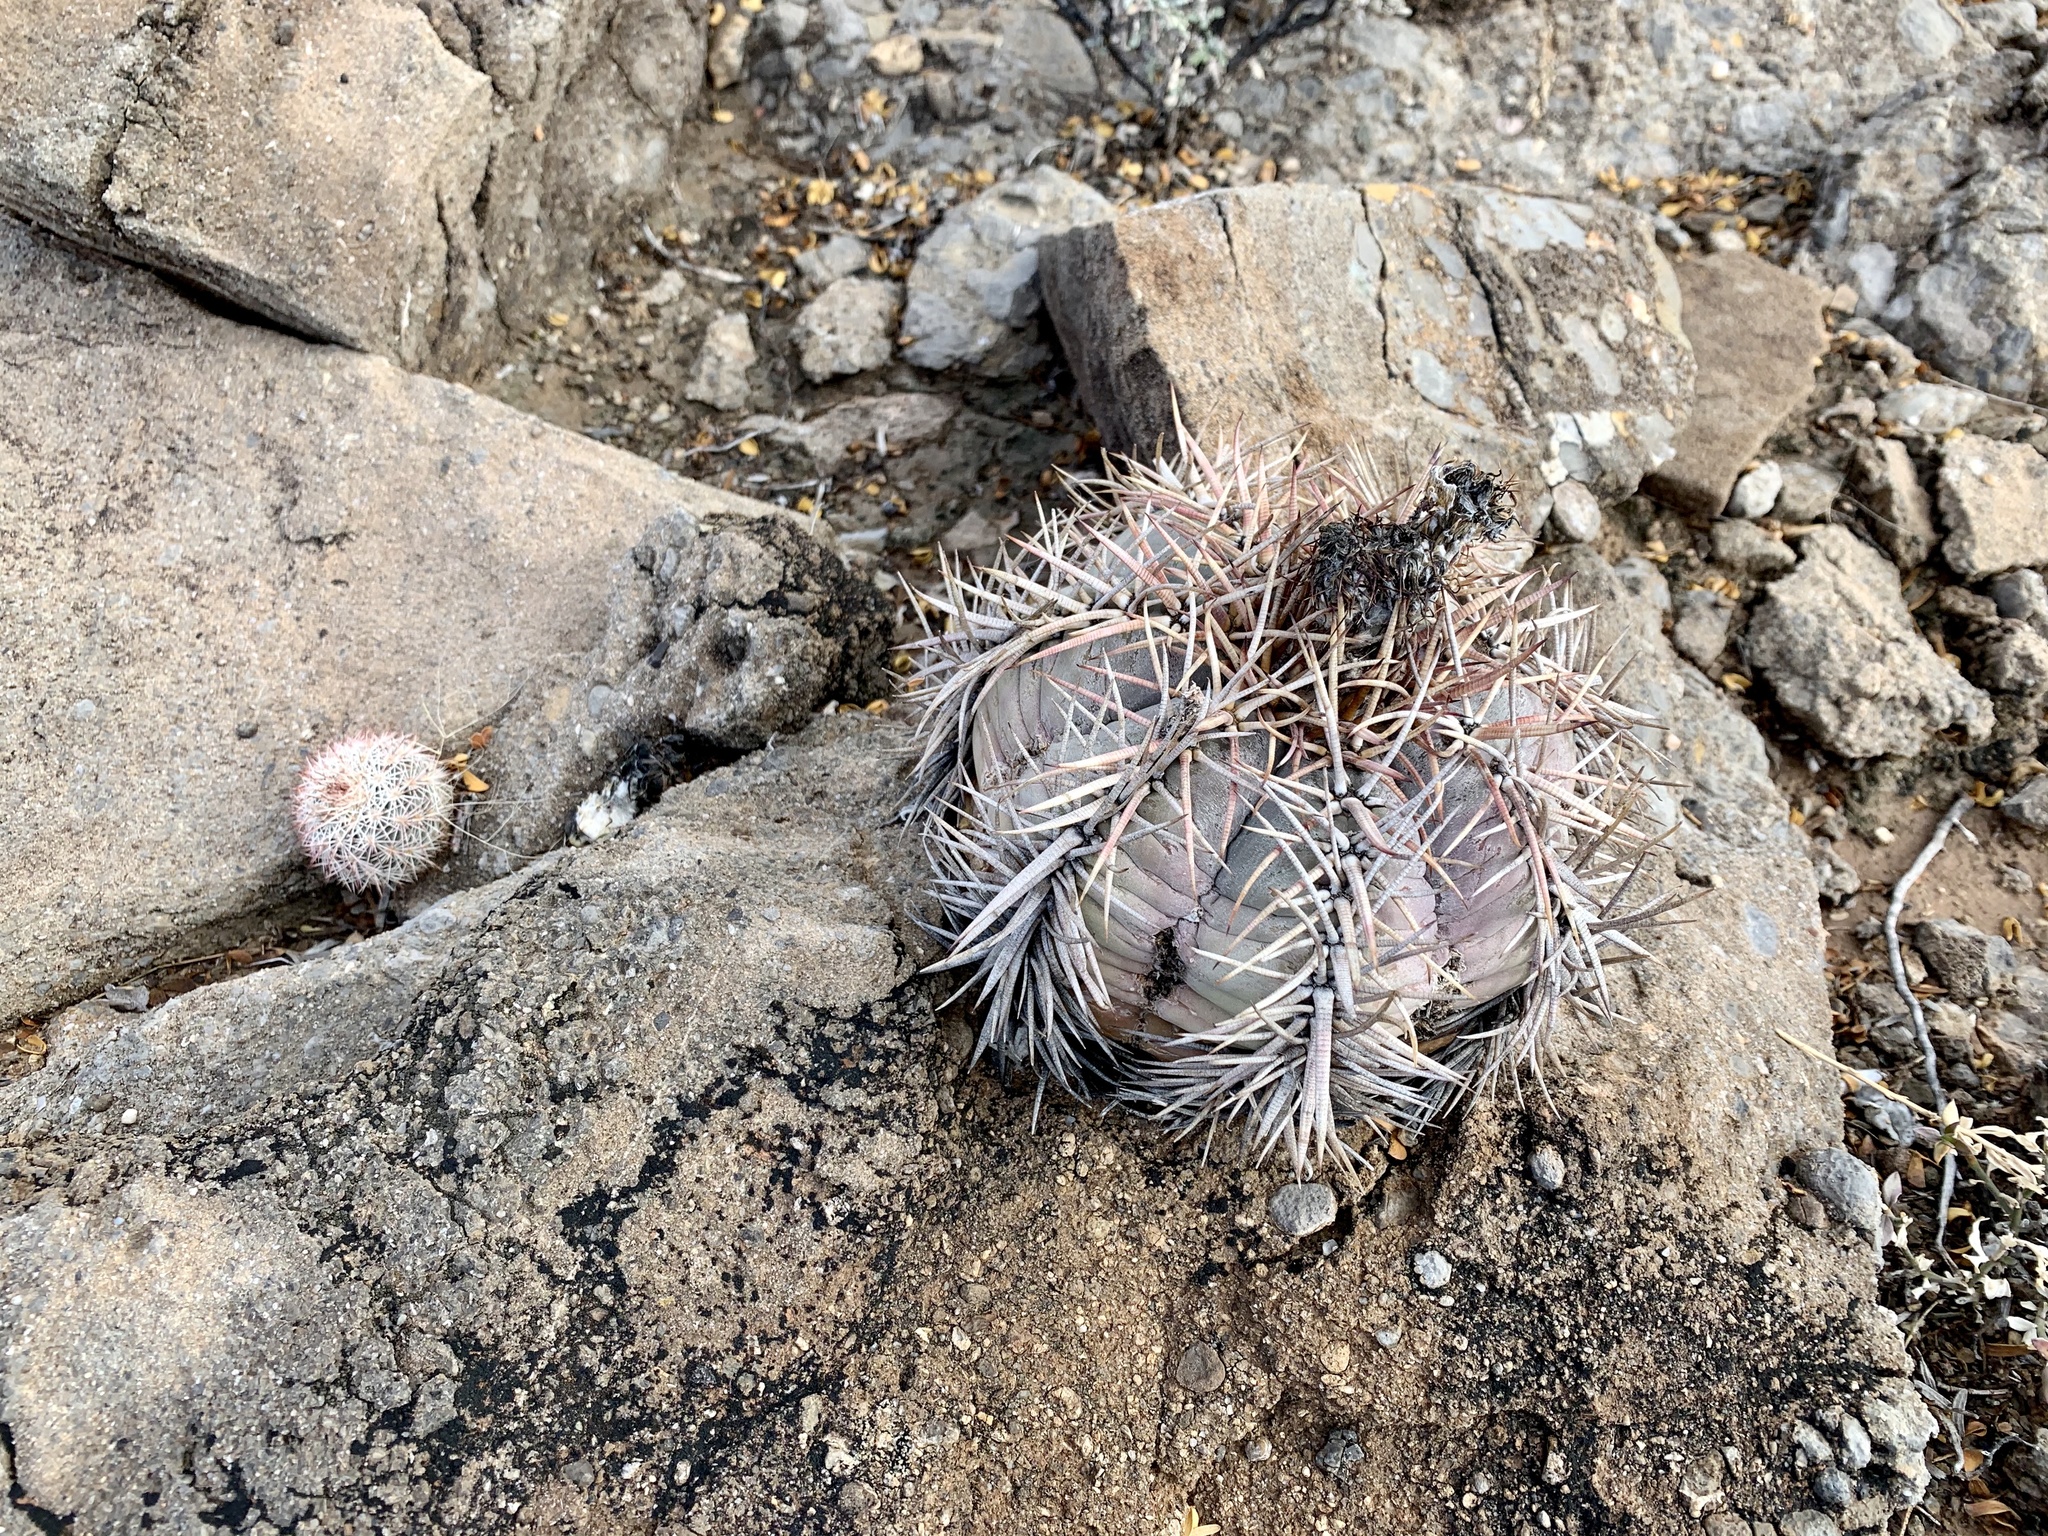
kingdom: Plantae
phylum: Tracheophyta
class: Magnoliopsida
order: Caryophyllales
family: Cactaceae
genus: Echinocereus
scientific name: Echinocereus dasyacanthus
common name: Spiny hedgehog cactus
